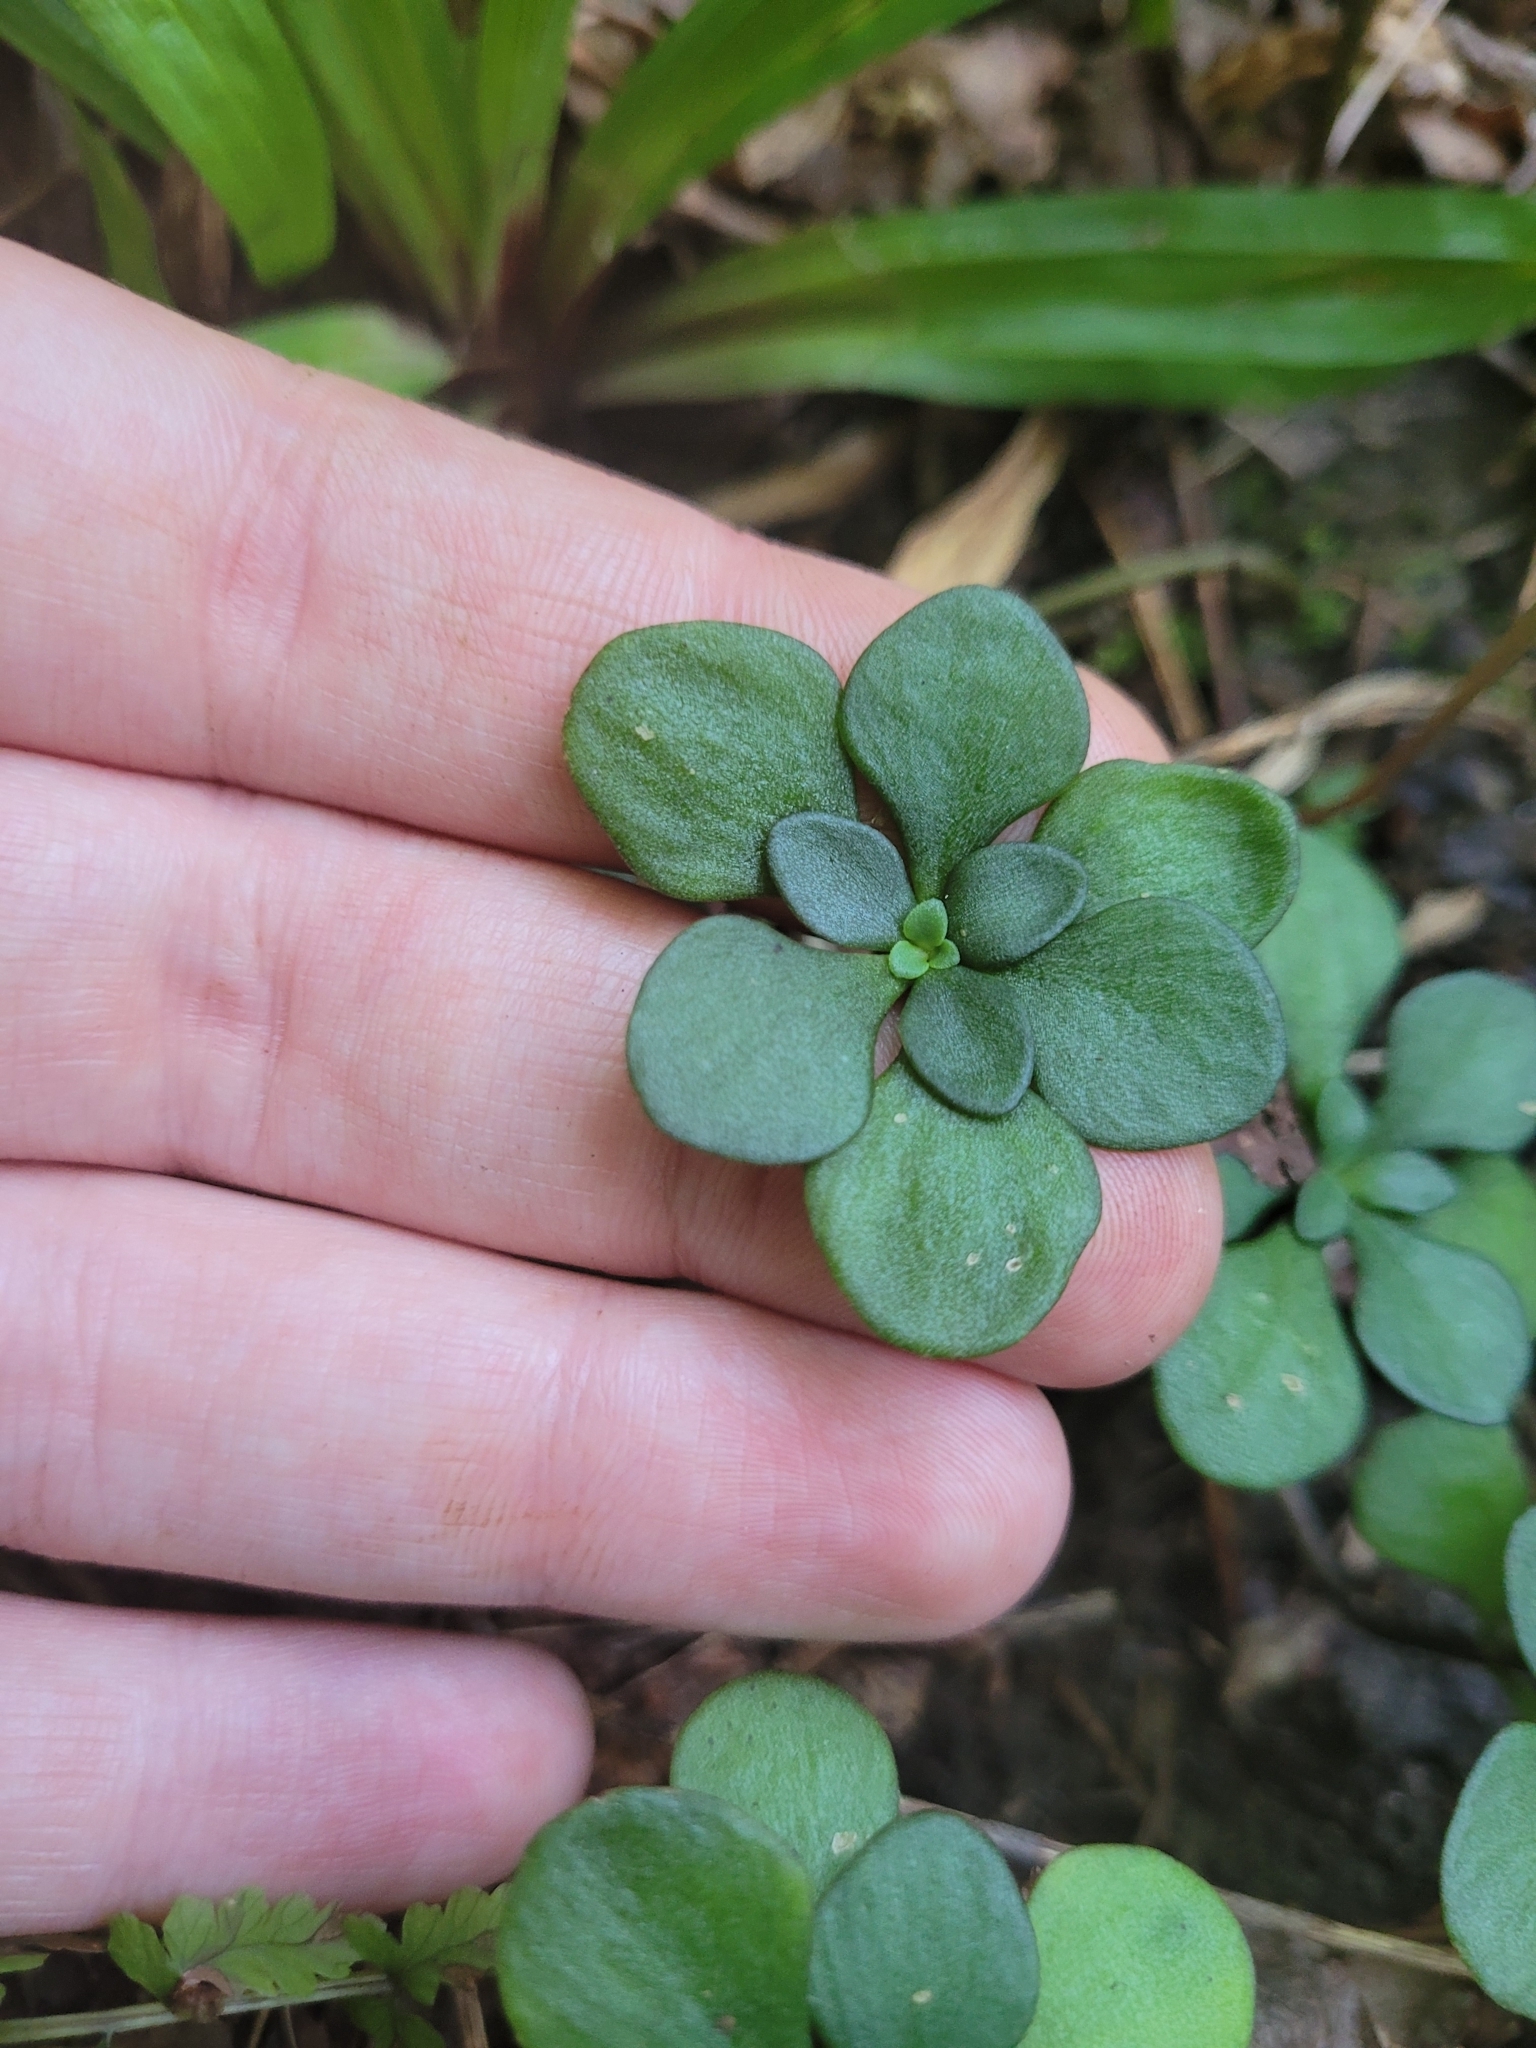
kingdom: Plantae
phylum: Tracheophyta
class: Magnoliopsida
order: Saxifragales
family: Crassulaceae
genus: Sedum
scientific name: Sedum ternatum
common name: Wild stonecrop
